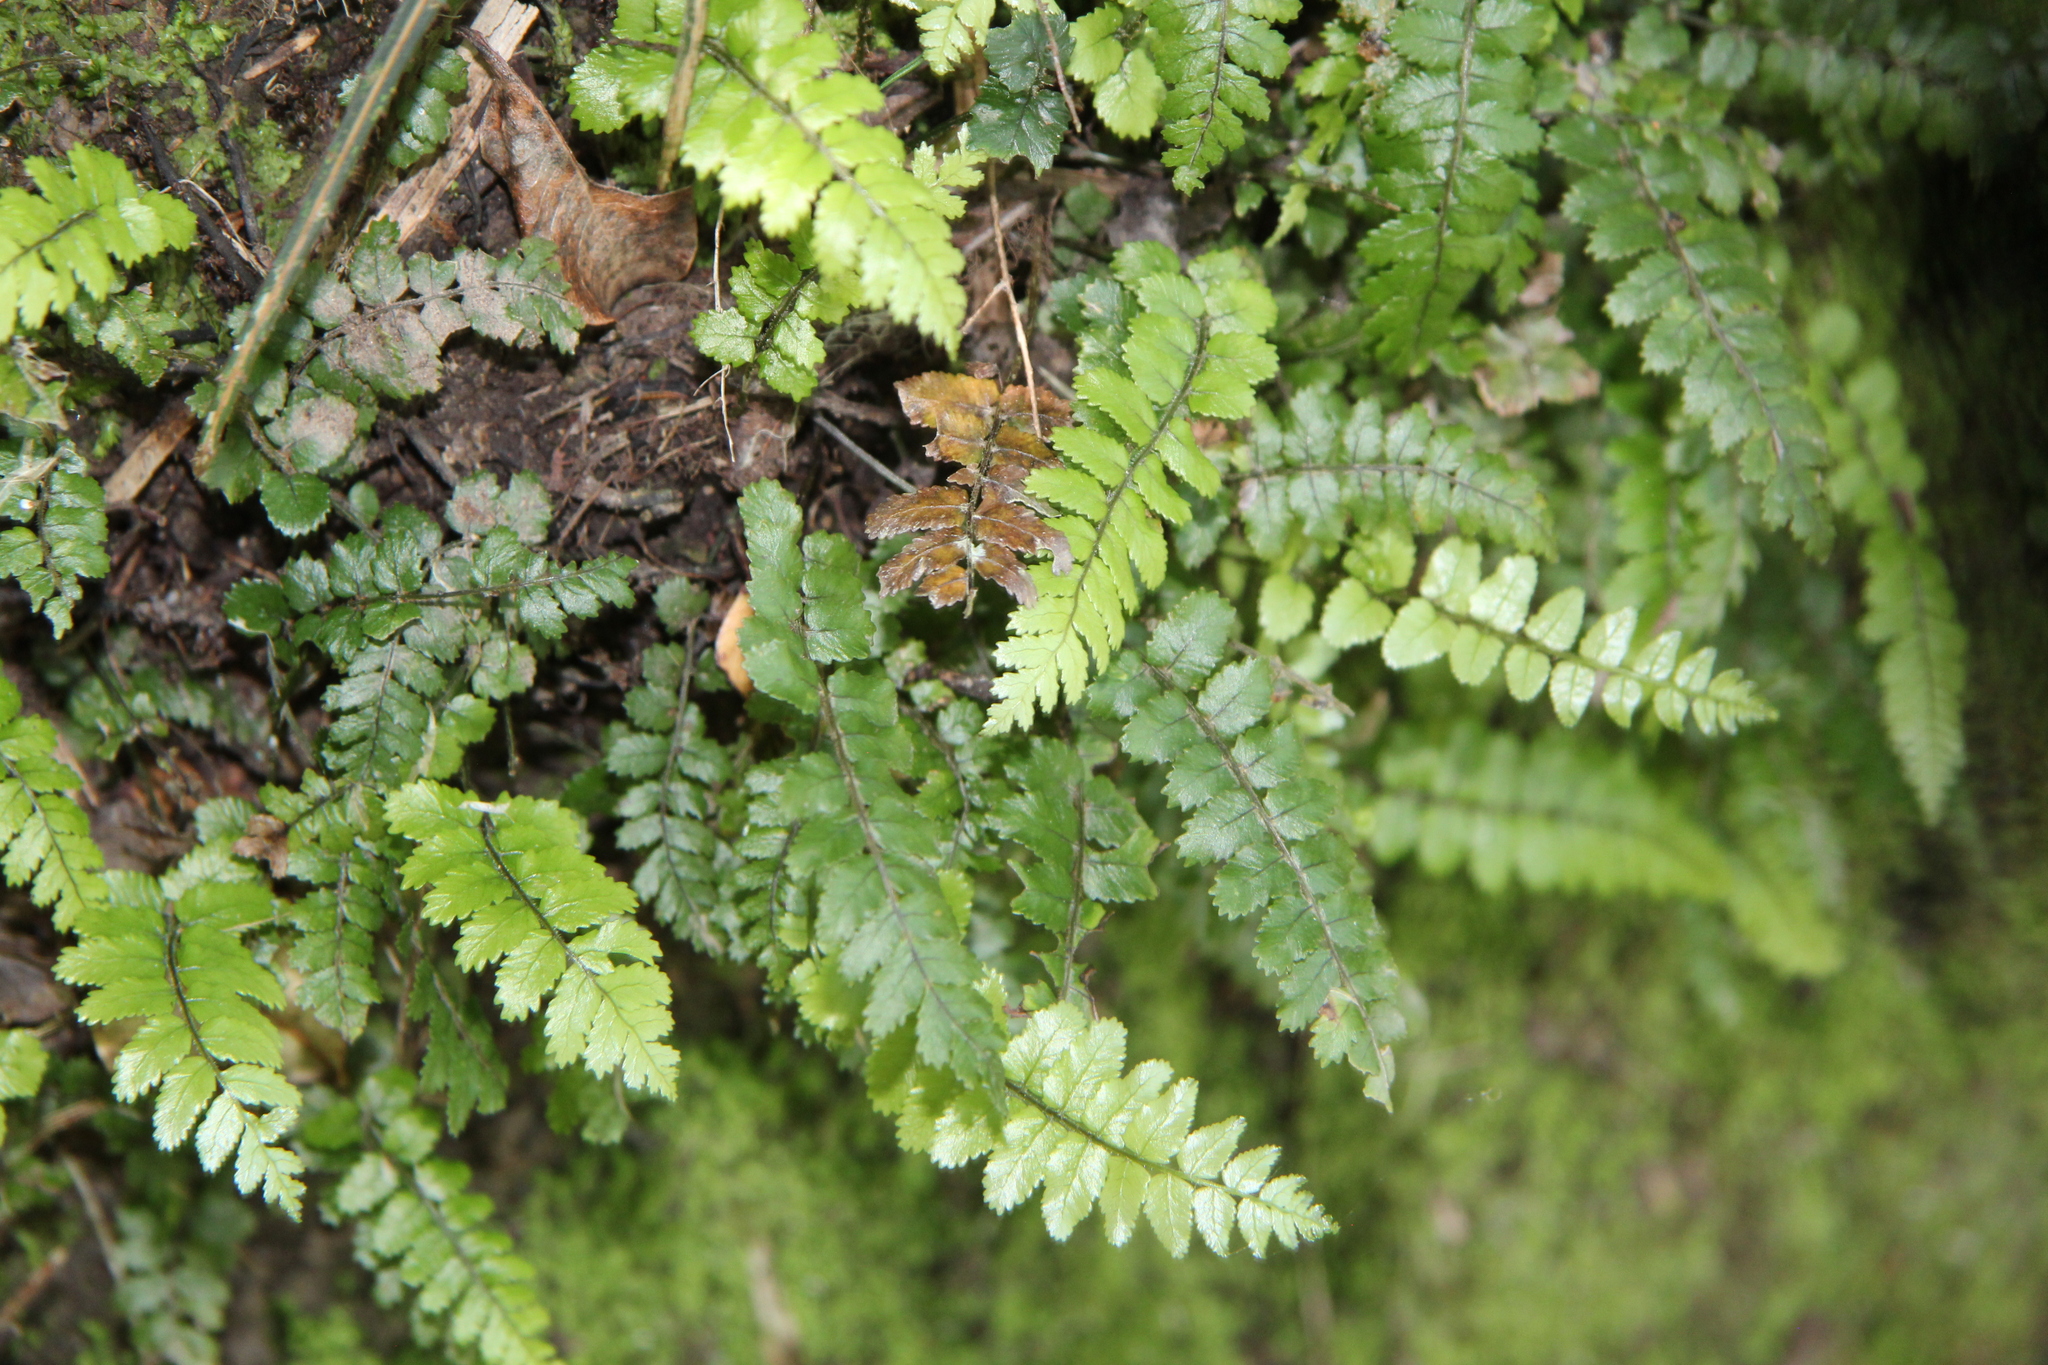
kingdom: Plantae
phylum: Tracheophyta
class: Polypodiopsida
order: Polypodiales
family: Blechnaceae
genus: Icarus
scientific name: Icarus filiformis
